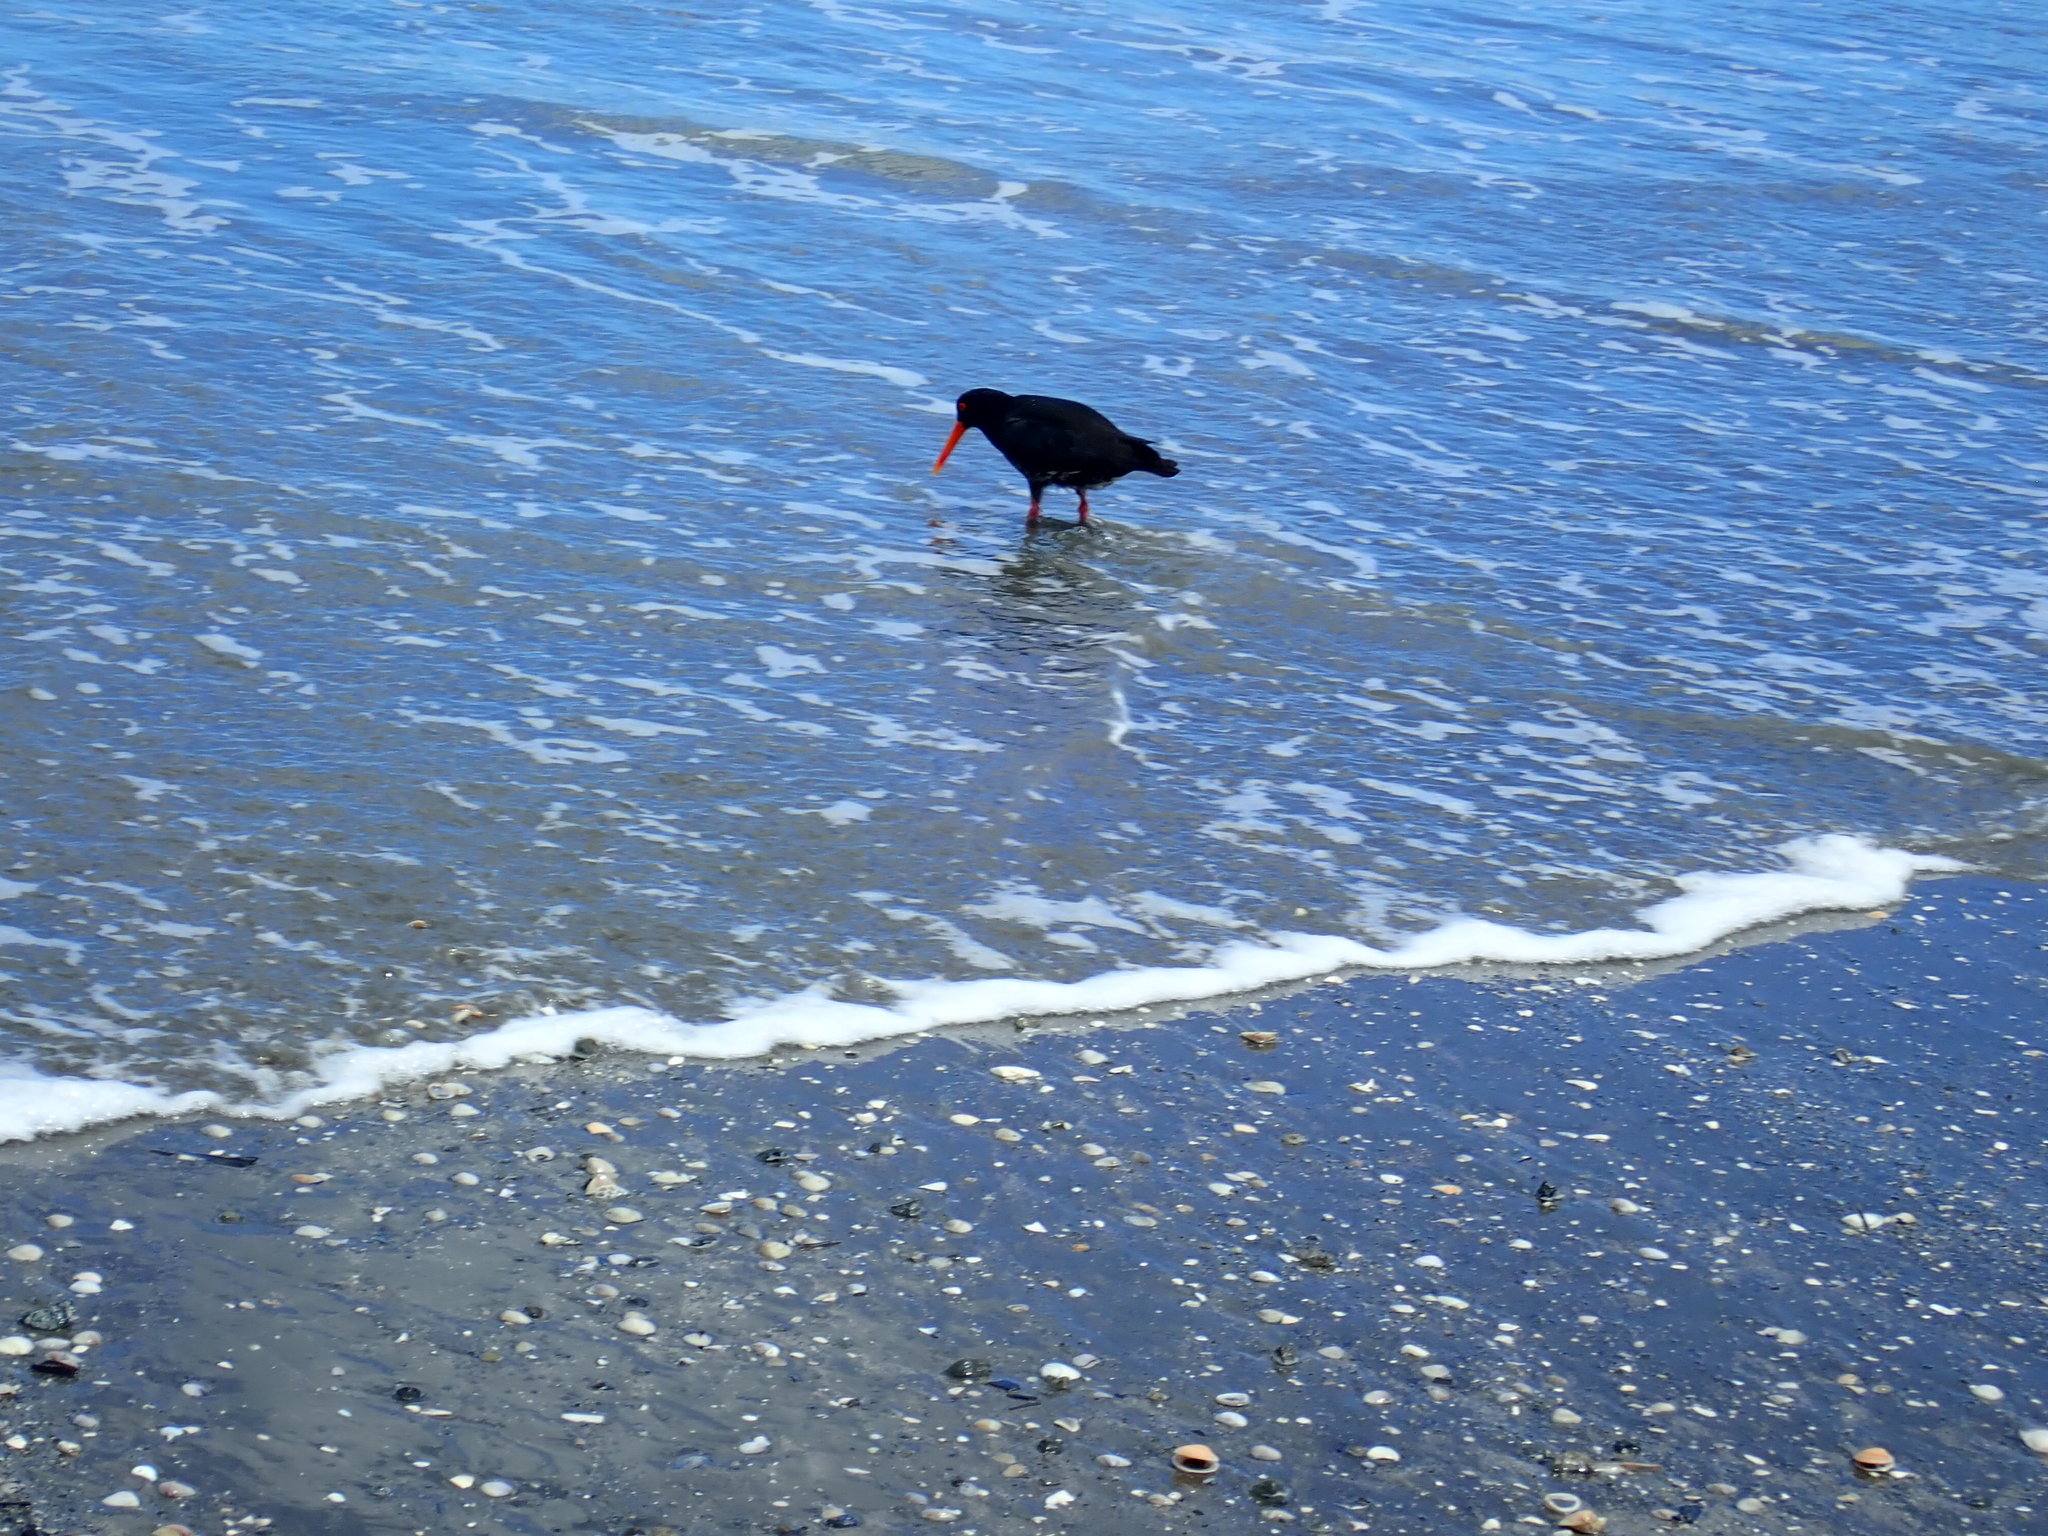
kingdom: Animalia
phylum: Chordata
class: Aves
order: Charadriiformes
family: Haematopodidae
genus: Haematopus
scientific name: Haematopus unicolor
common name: Variable oystercatcher
